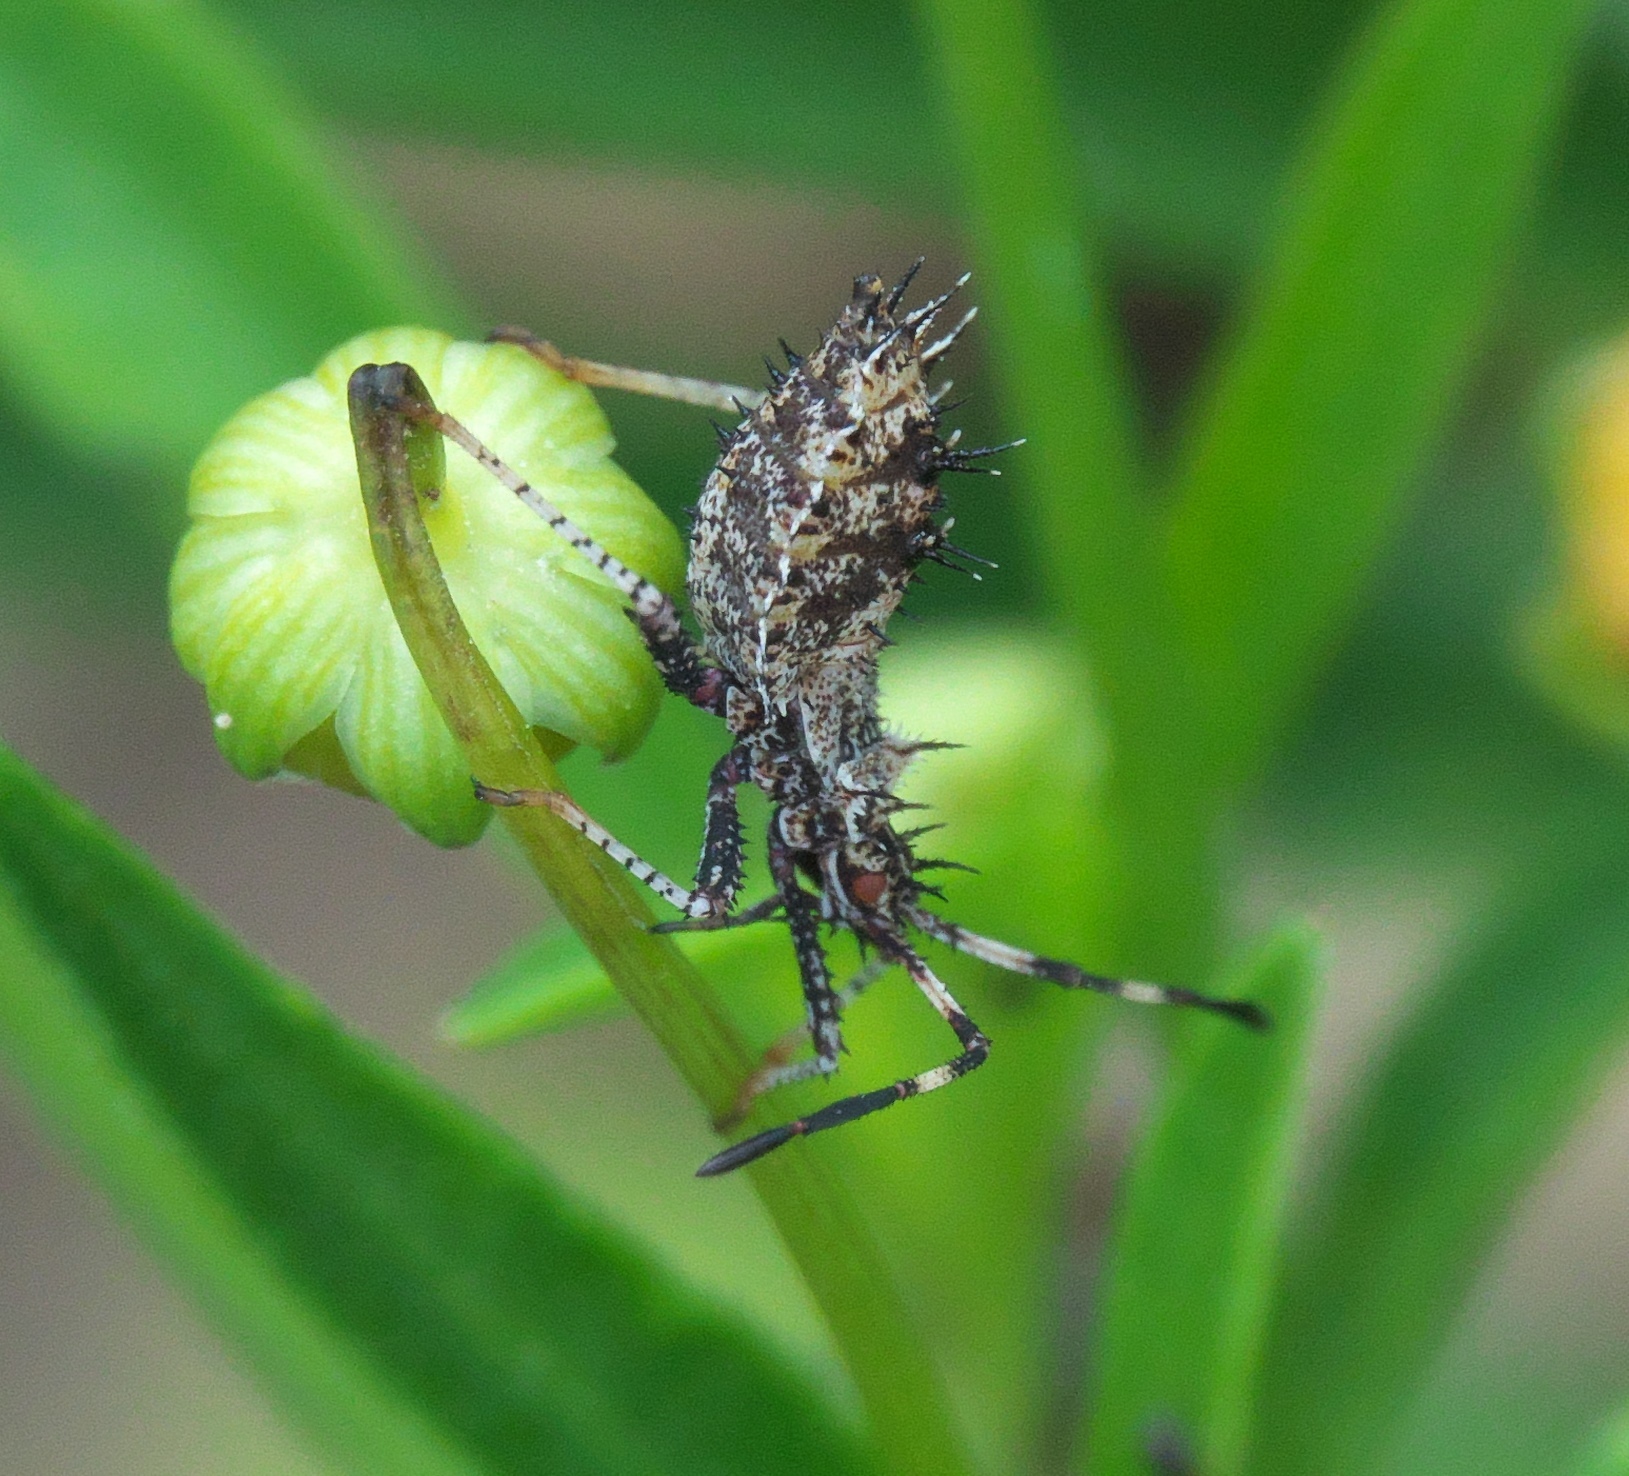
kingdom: Animalia
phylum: Arthropoda
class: Insecta
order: Hemiptera
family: Coreidae
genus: Euthochtha
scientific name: Euthochtha galeator
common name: Helmeted squash bug
